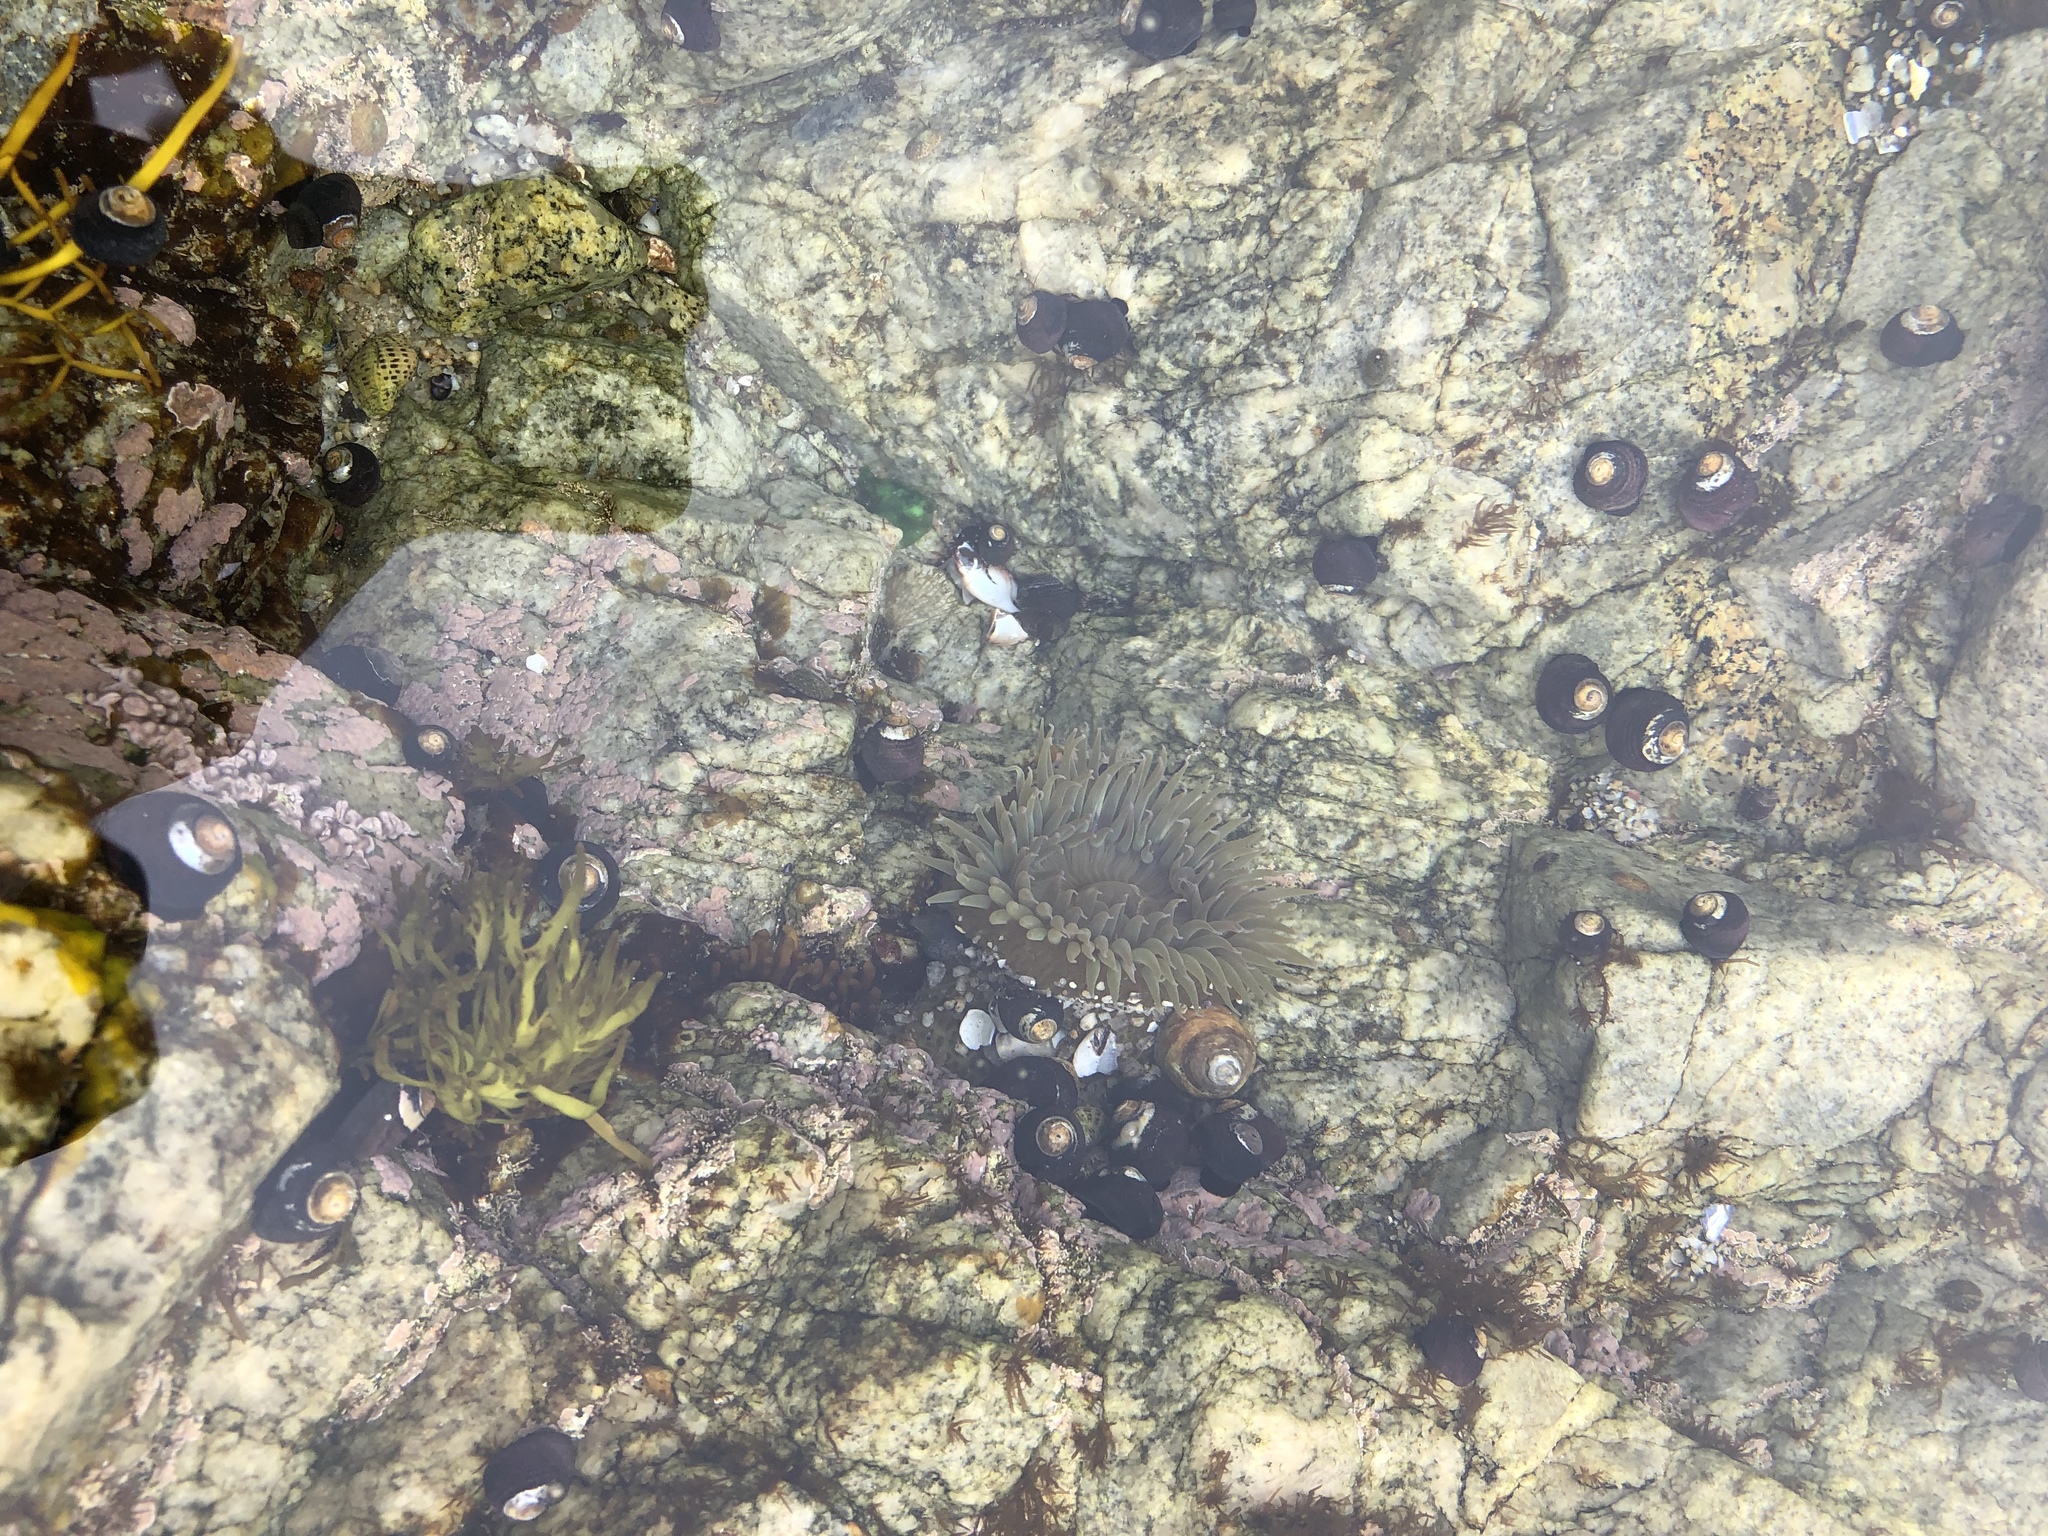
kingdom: Animalia
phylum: Cnidaria
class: Anthozoa
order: Actiniaria
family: Actiniidae
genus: Anthopleura
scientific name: Anthopleura sola
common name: Sun anemone
